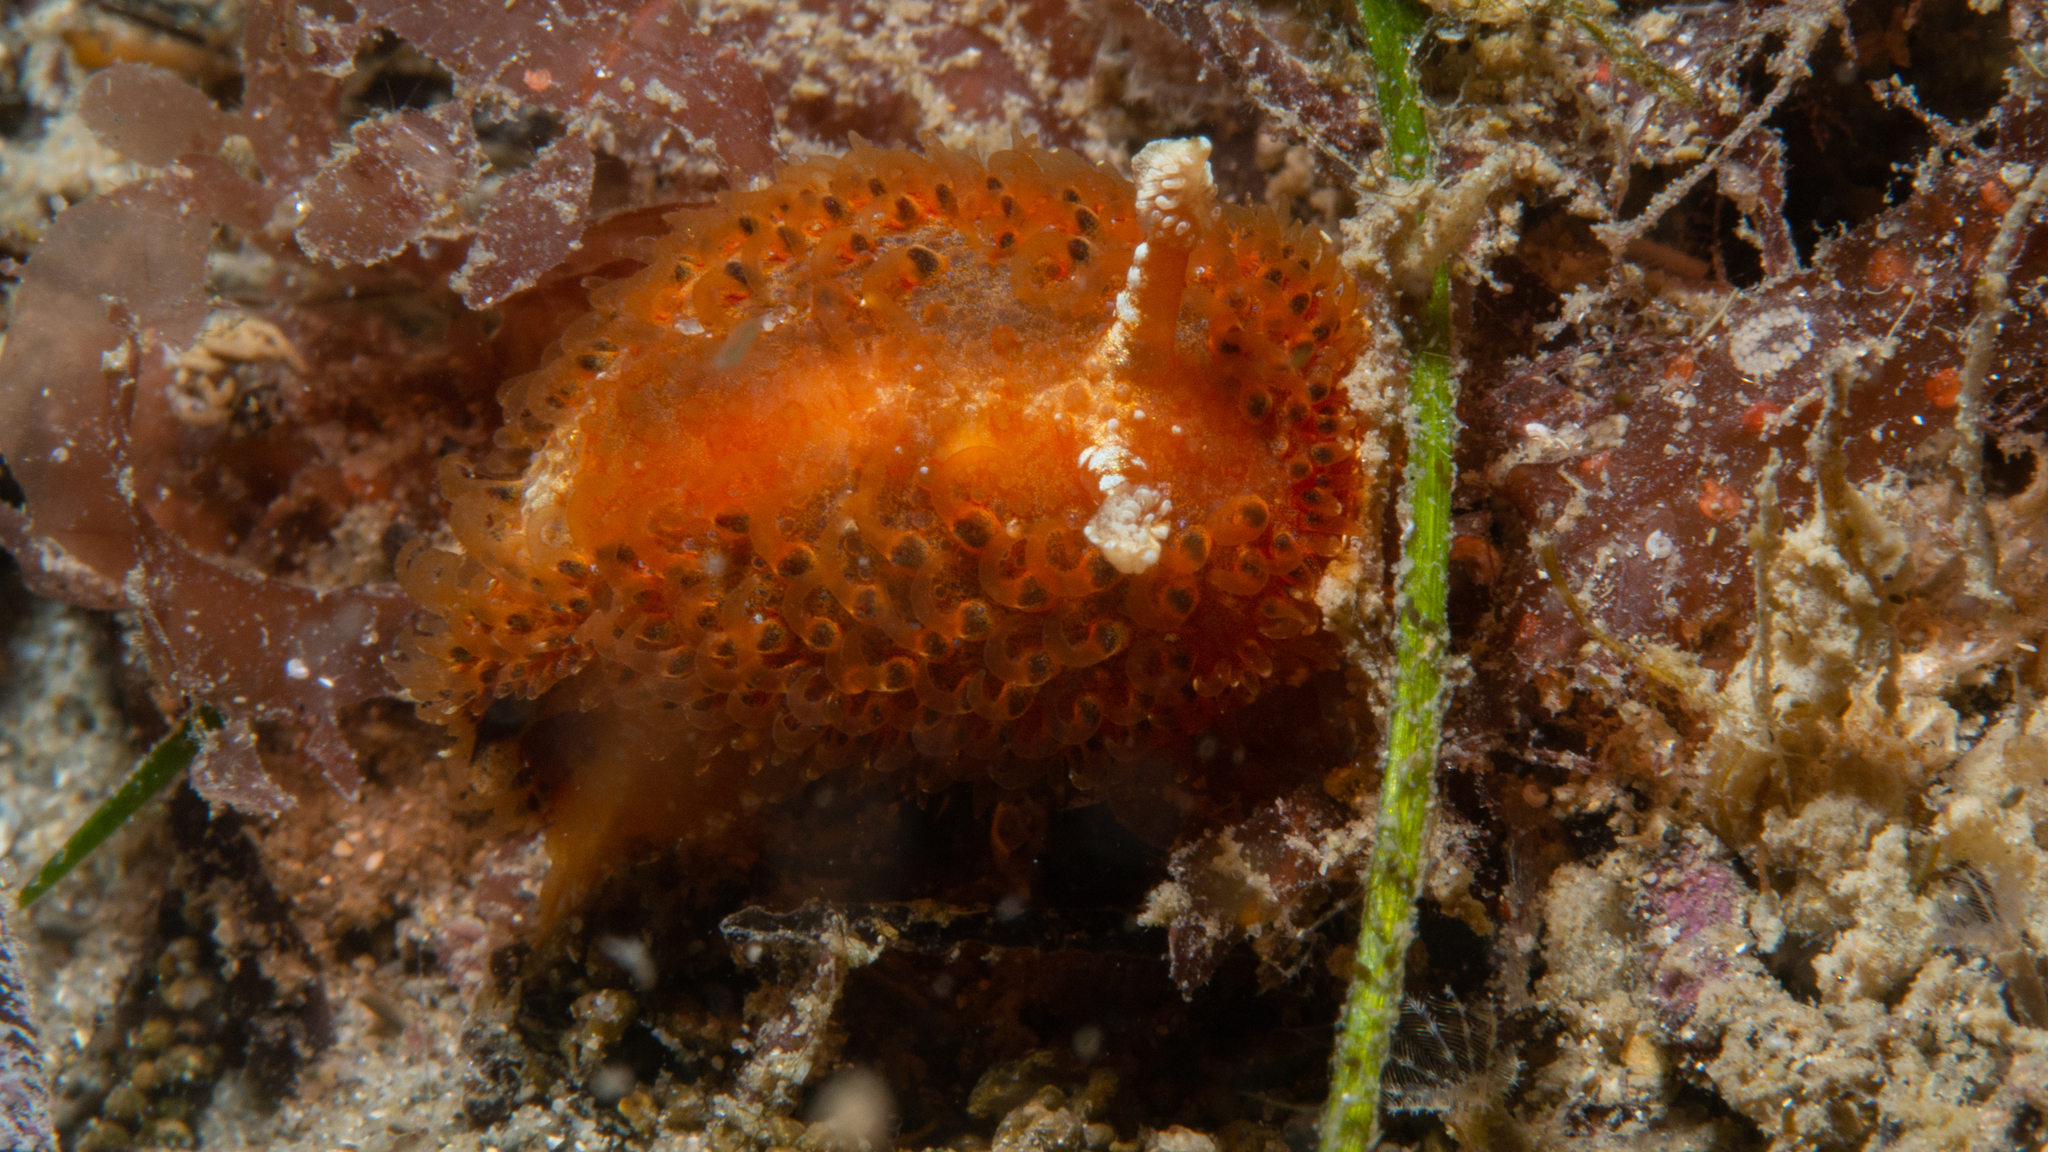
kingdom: Animalia
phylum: Mollusca
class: Gastropoda
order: Nudibranchia
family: Madrellidae
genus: Madrella
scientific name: Madrella ferruginosa
